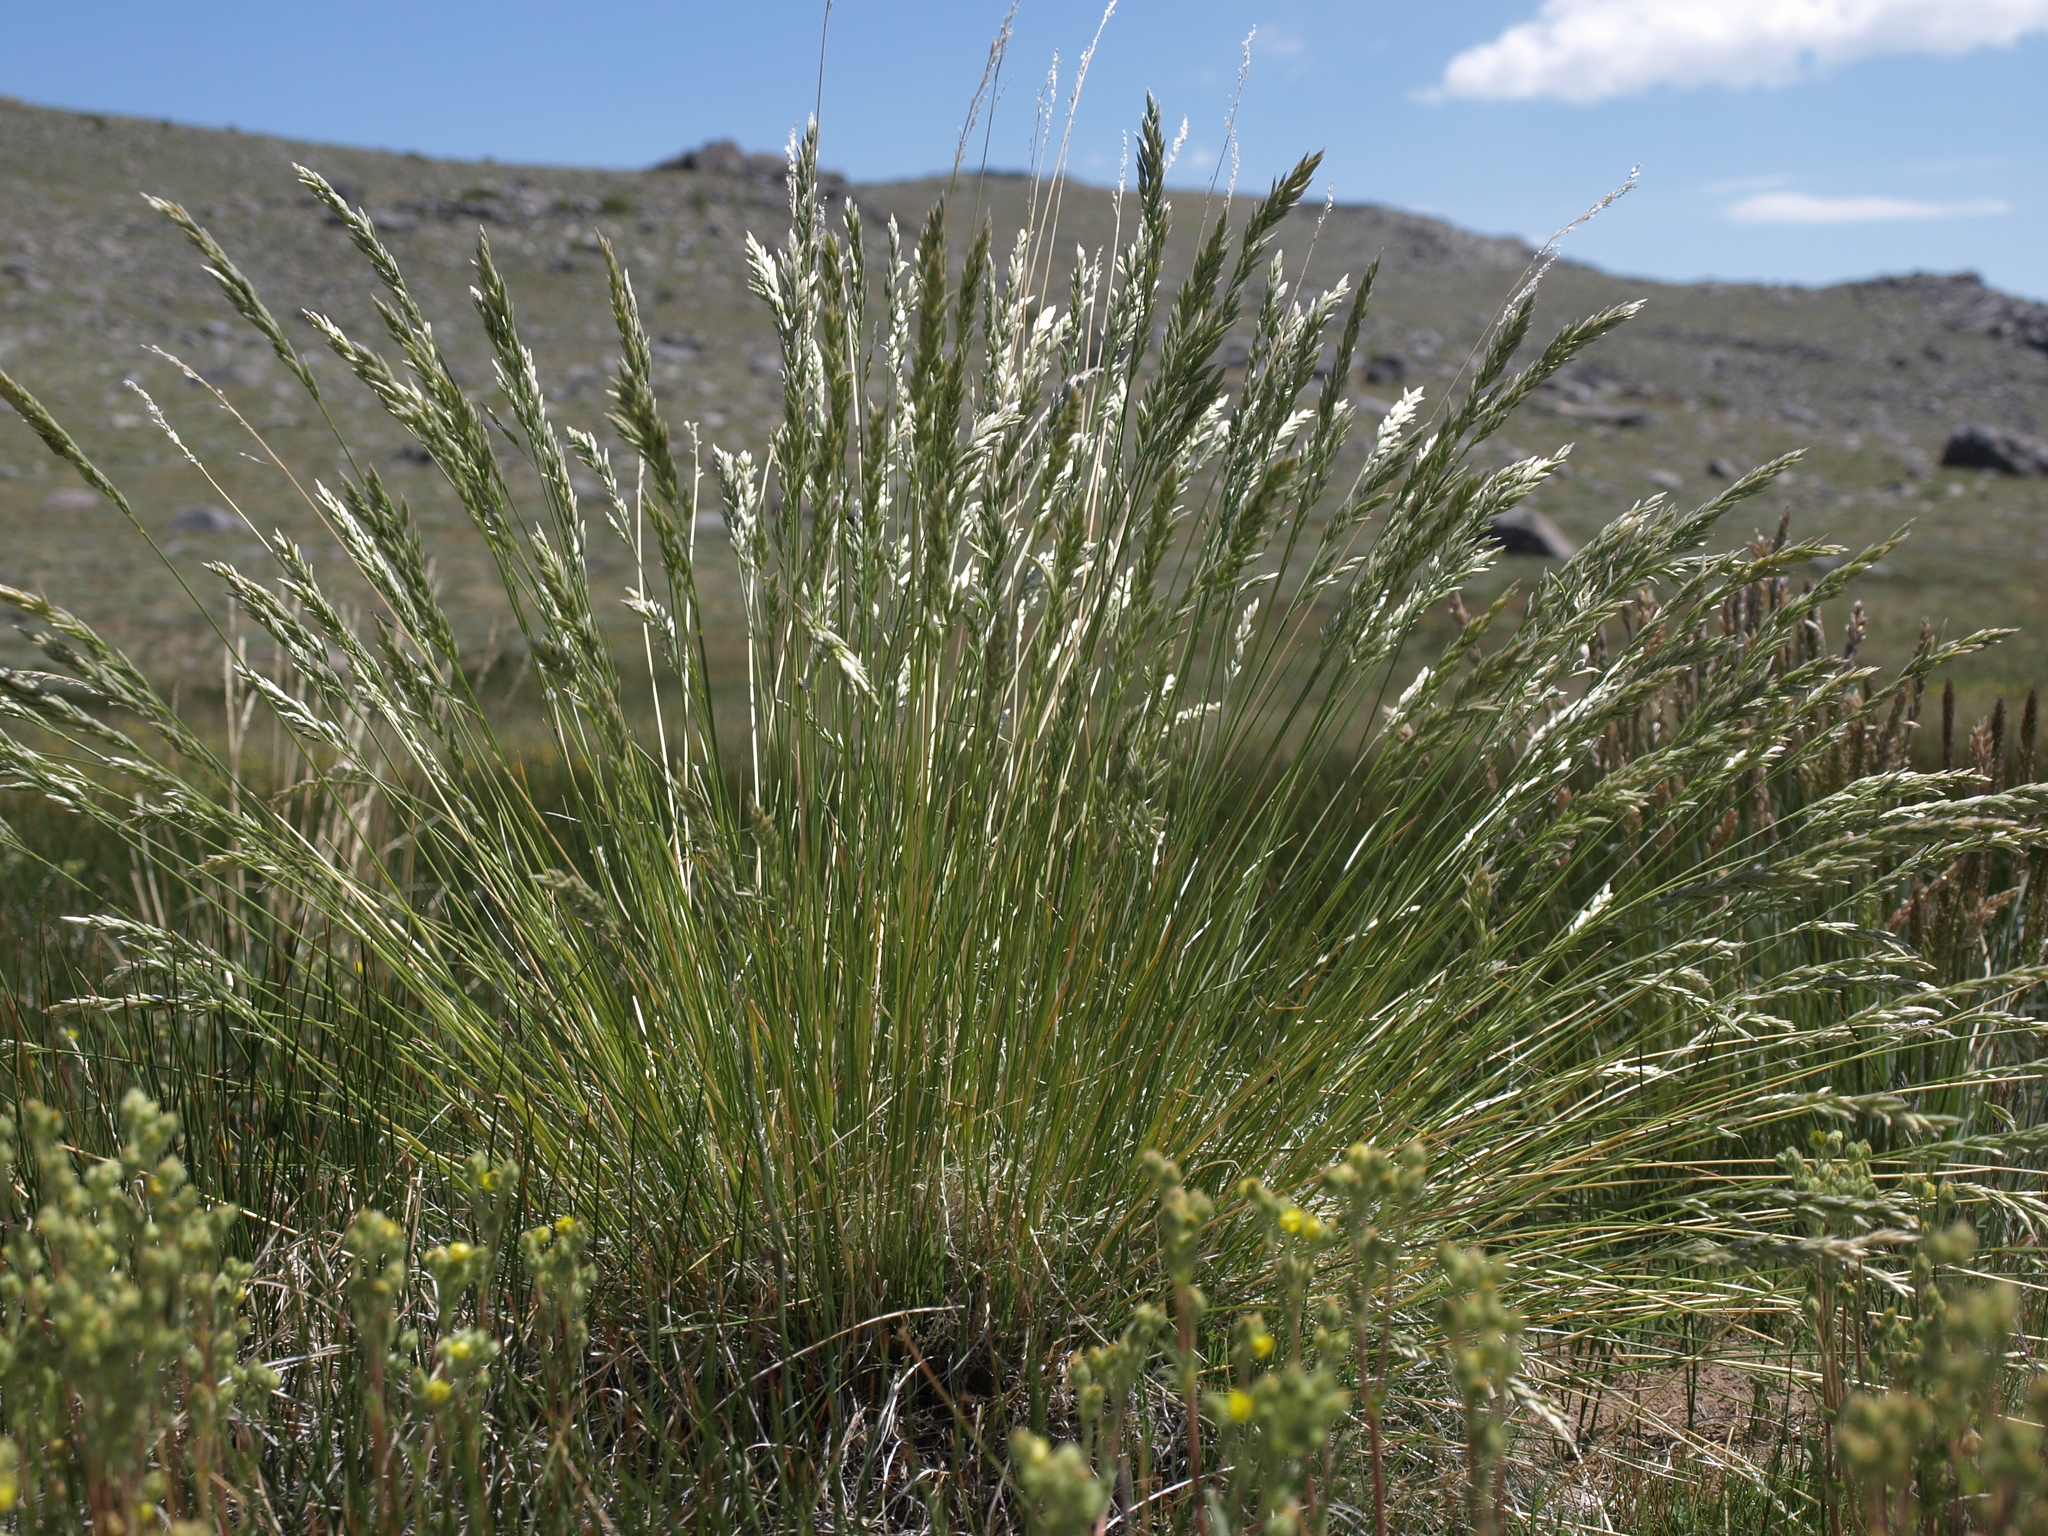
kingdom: Plantae
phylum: Tracheophyta
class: Liliopsida
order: Poales
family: Poaceae
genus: Poa
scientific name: Poa cusickii
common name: Cusick's bluegrass
